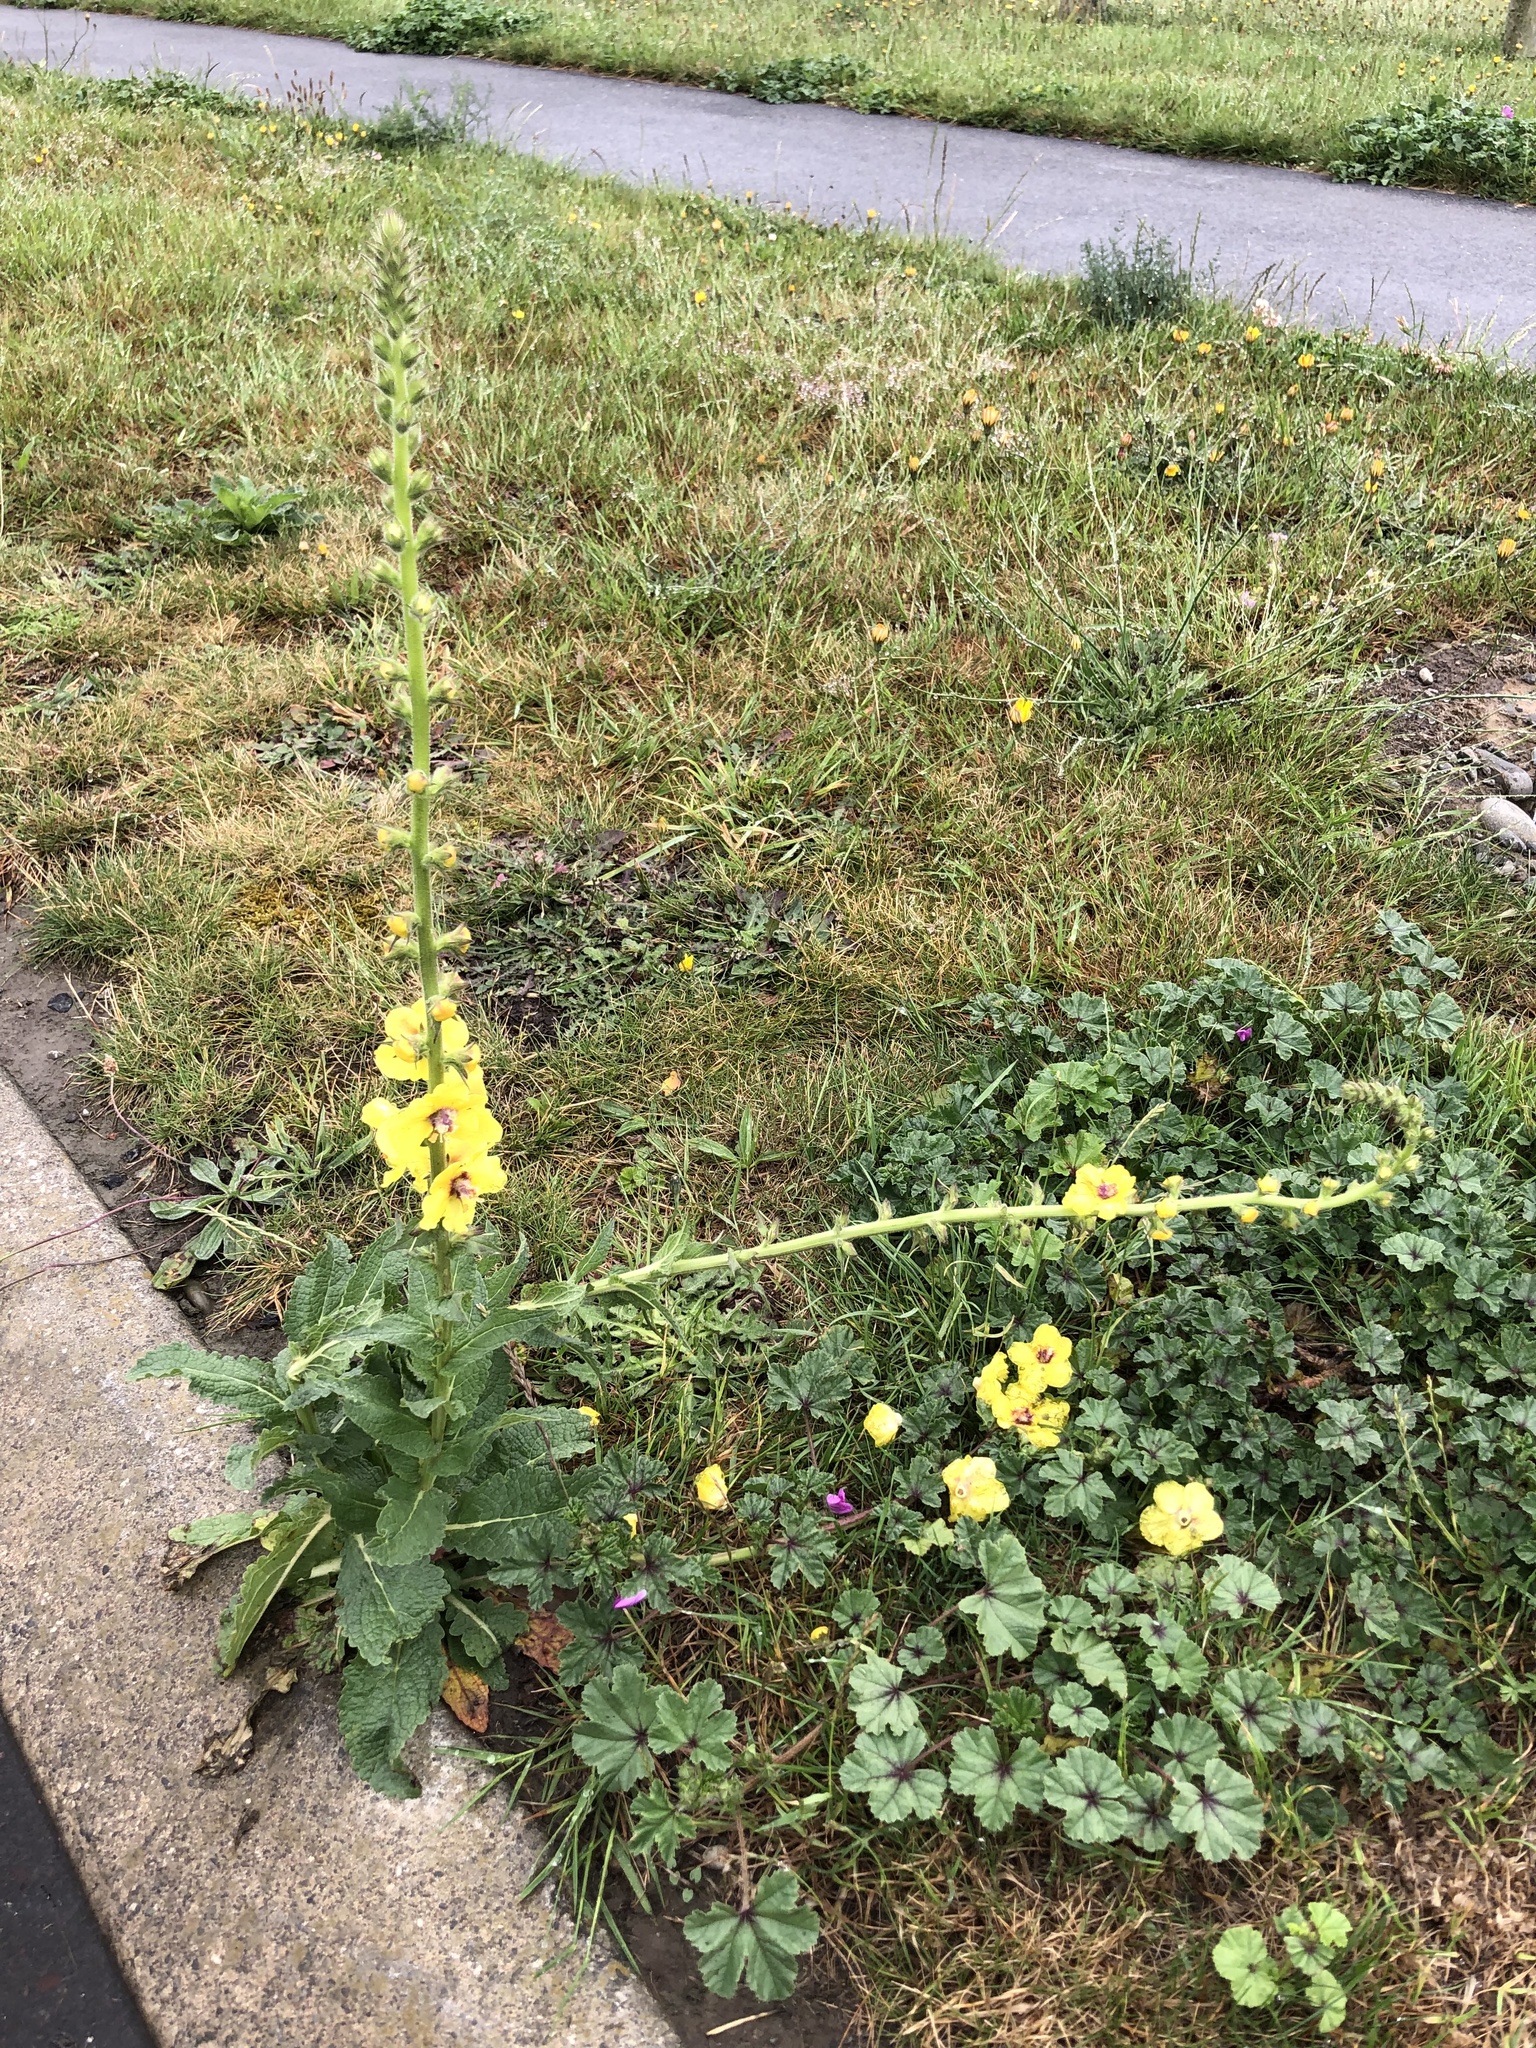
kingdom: Plantae
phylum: Tracheophyta
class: Magnoliopsida
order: Lamiales
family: Scrophulariaceae
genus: Verbascum
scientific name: Verbascum virgatum
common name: Twiggy mullein
